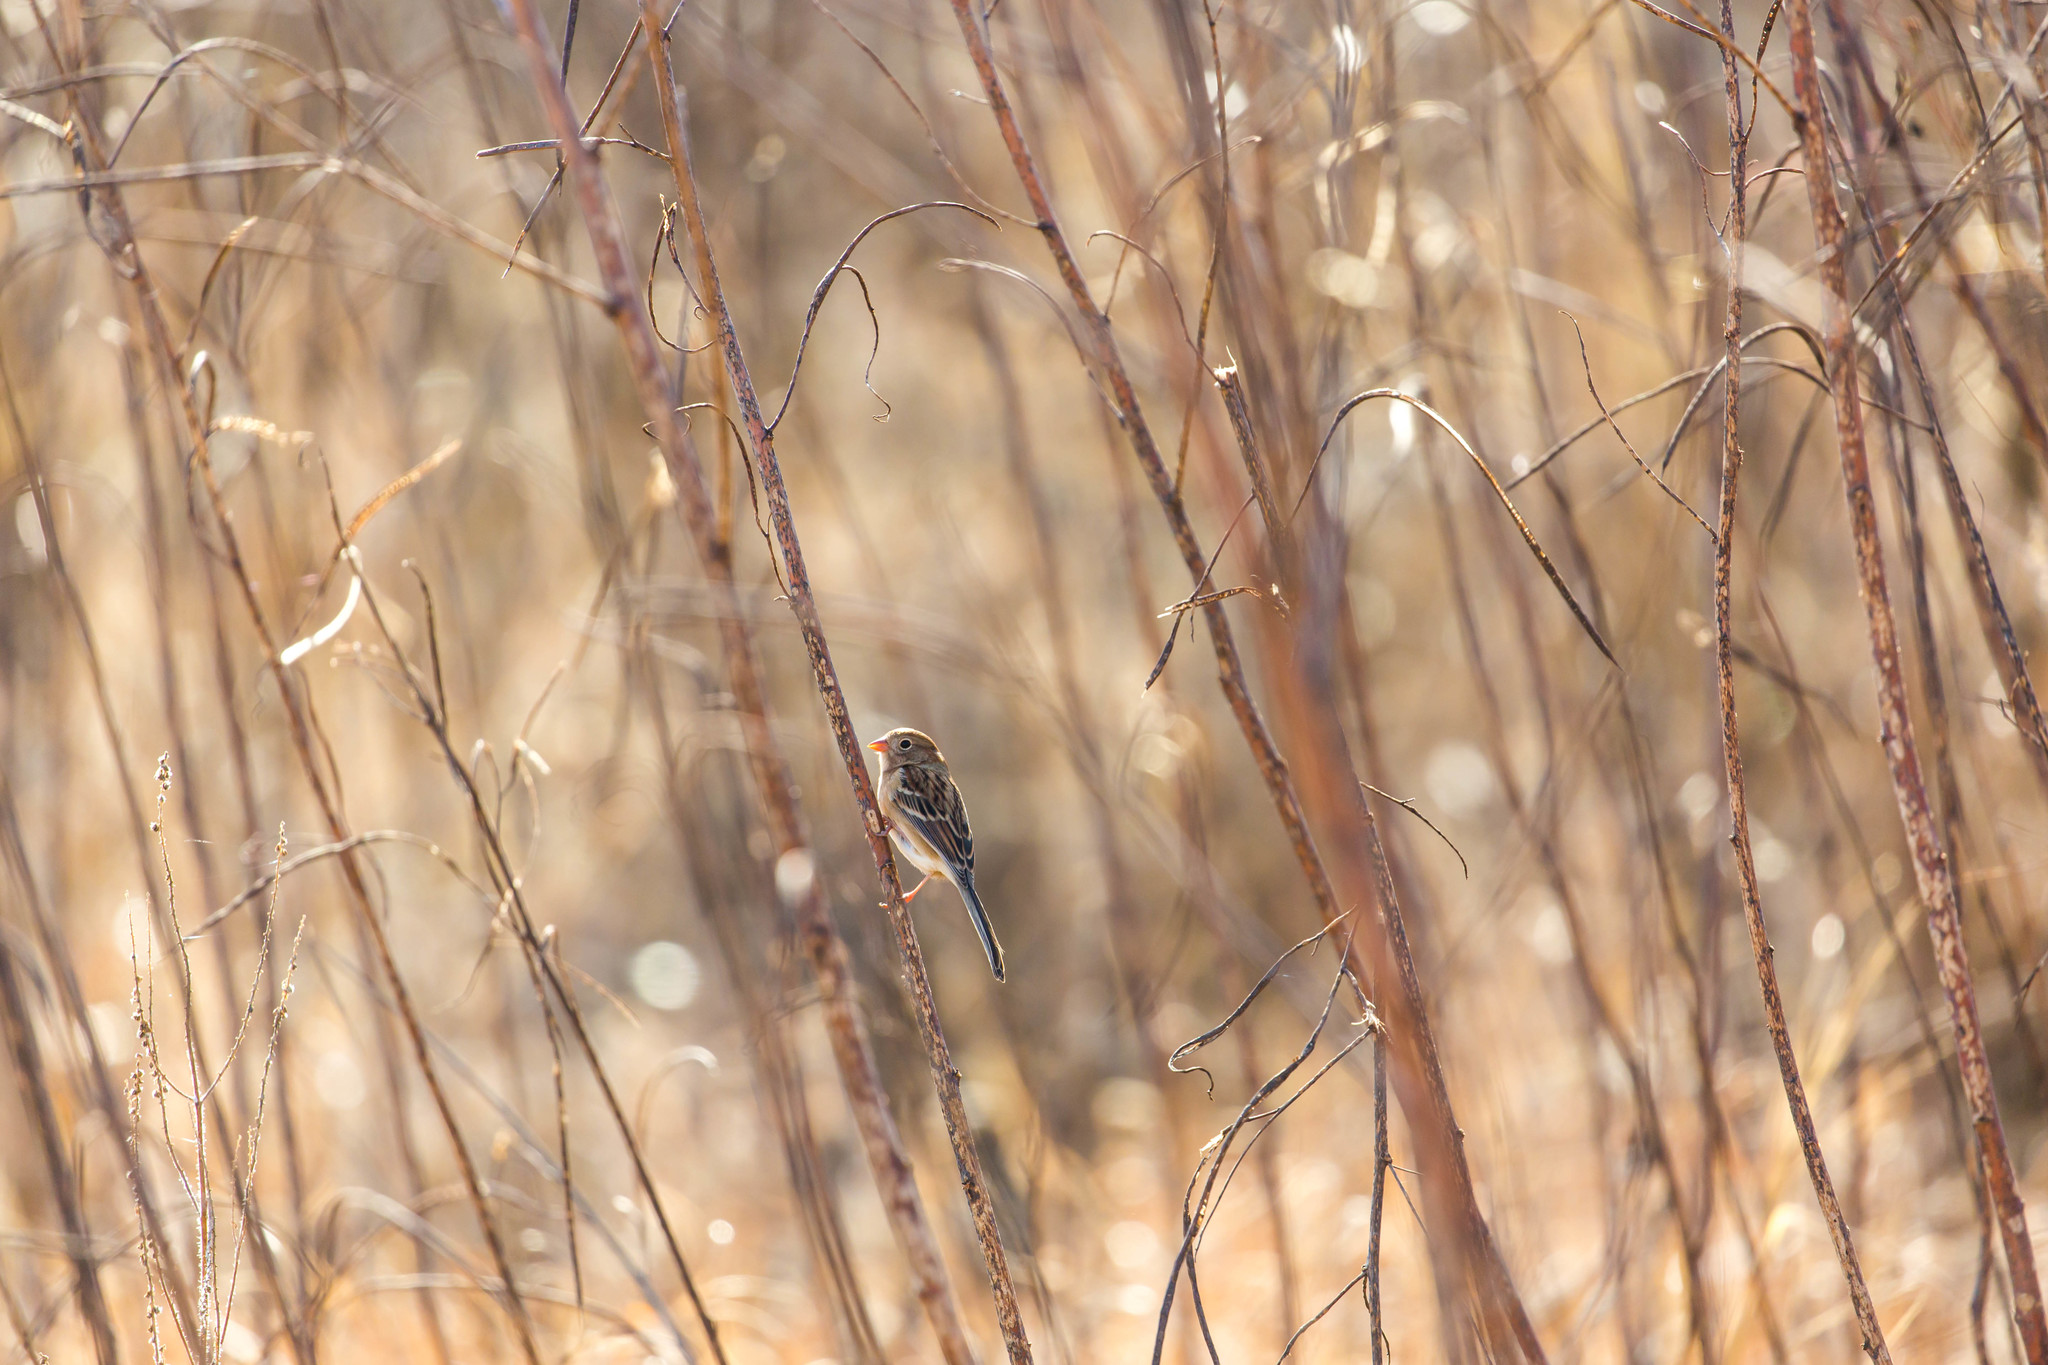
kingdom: Animalia
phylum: Chordata
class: Aves
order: Passeriformes
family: Passerellidae
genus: Spizella
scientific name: Spizella pusilla
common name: Field sparrow
